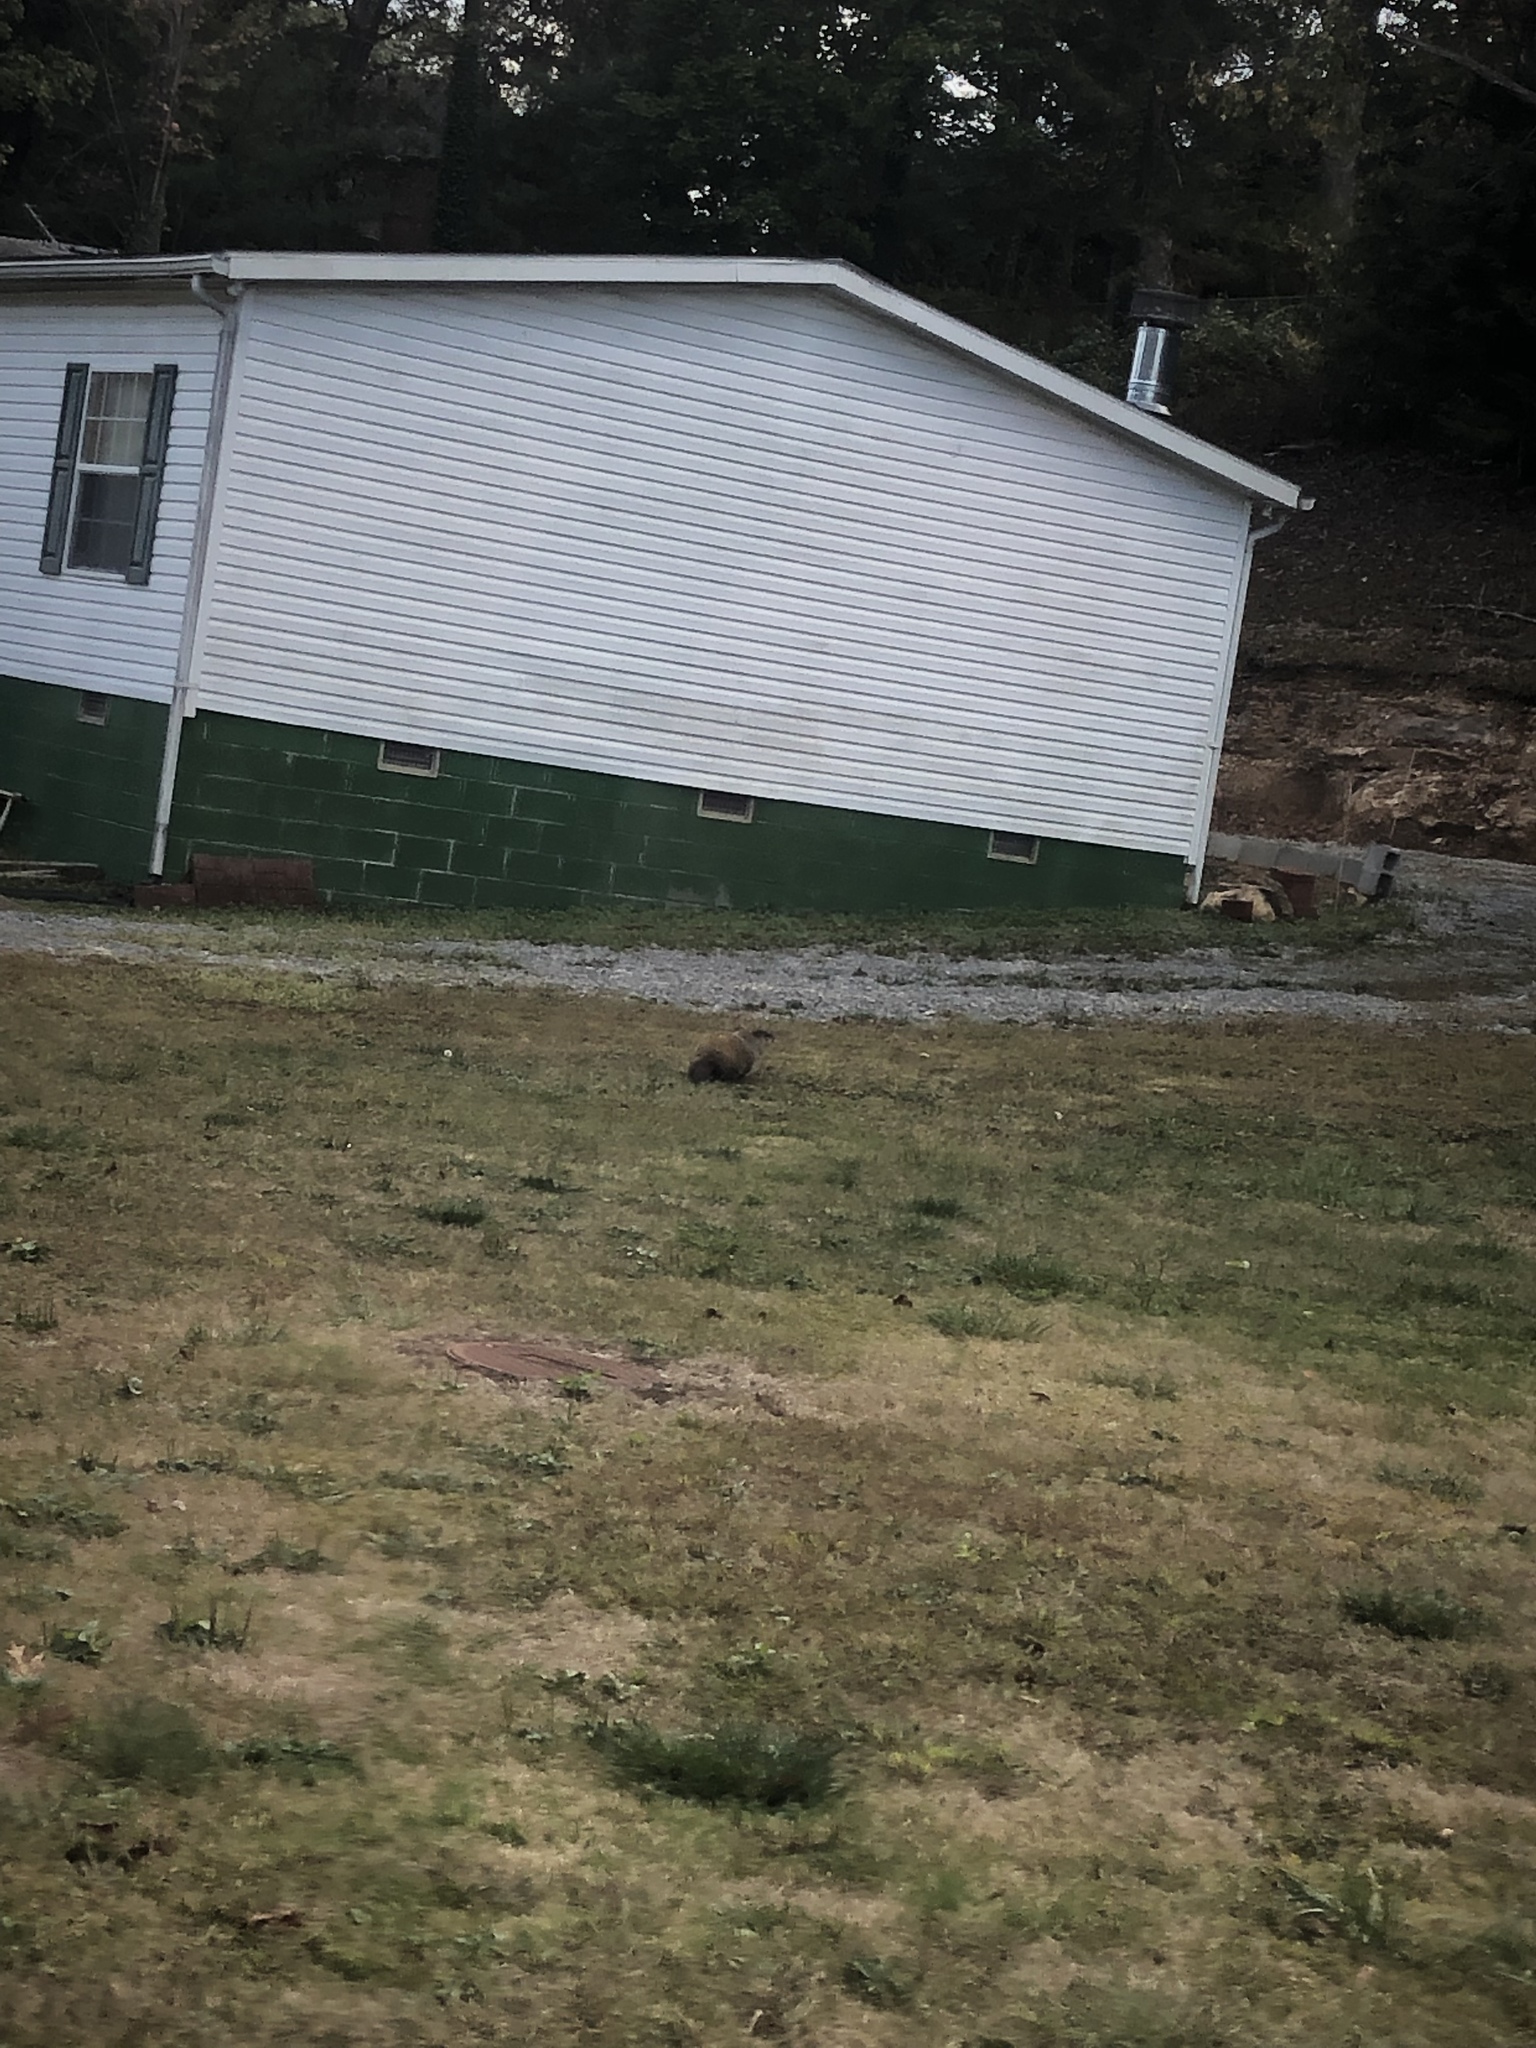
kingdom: Animalia
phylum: Chordata
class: Mammalia
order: Rodentia
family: Sciuridae
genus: Marmota
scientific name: Marmota monax
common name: Groundhog
